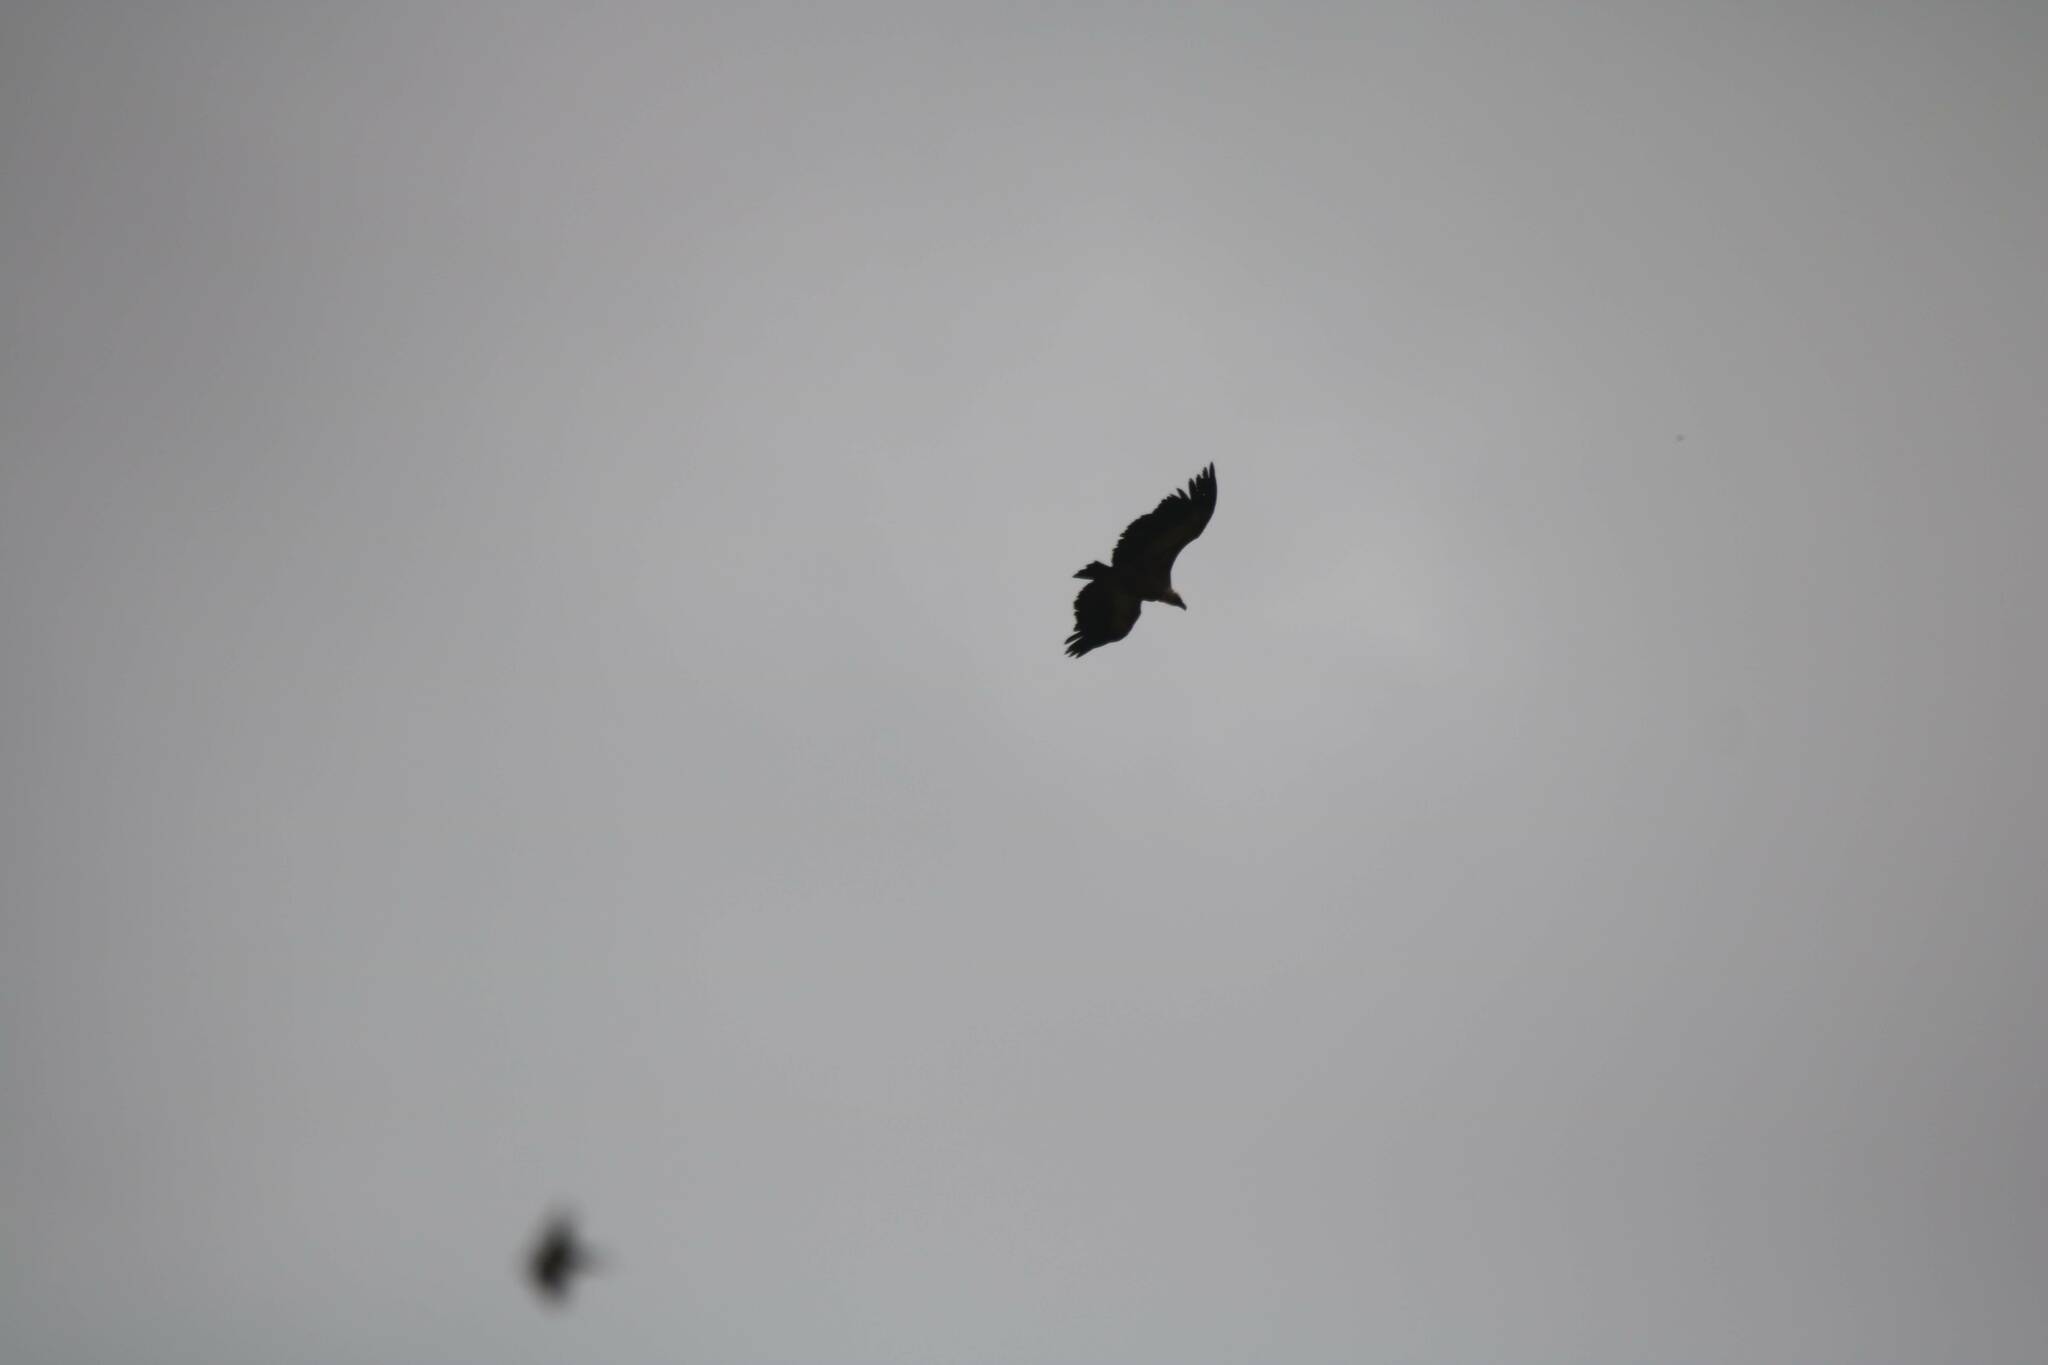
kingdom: Animalia
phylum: Chordata
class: Aves
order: Accipitriformes
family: Accipitridae
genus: Gyps
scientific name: Gyps fulvus
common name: Griffon vulture
